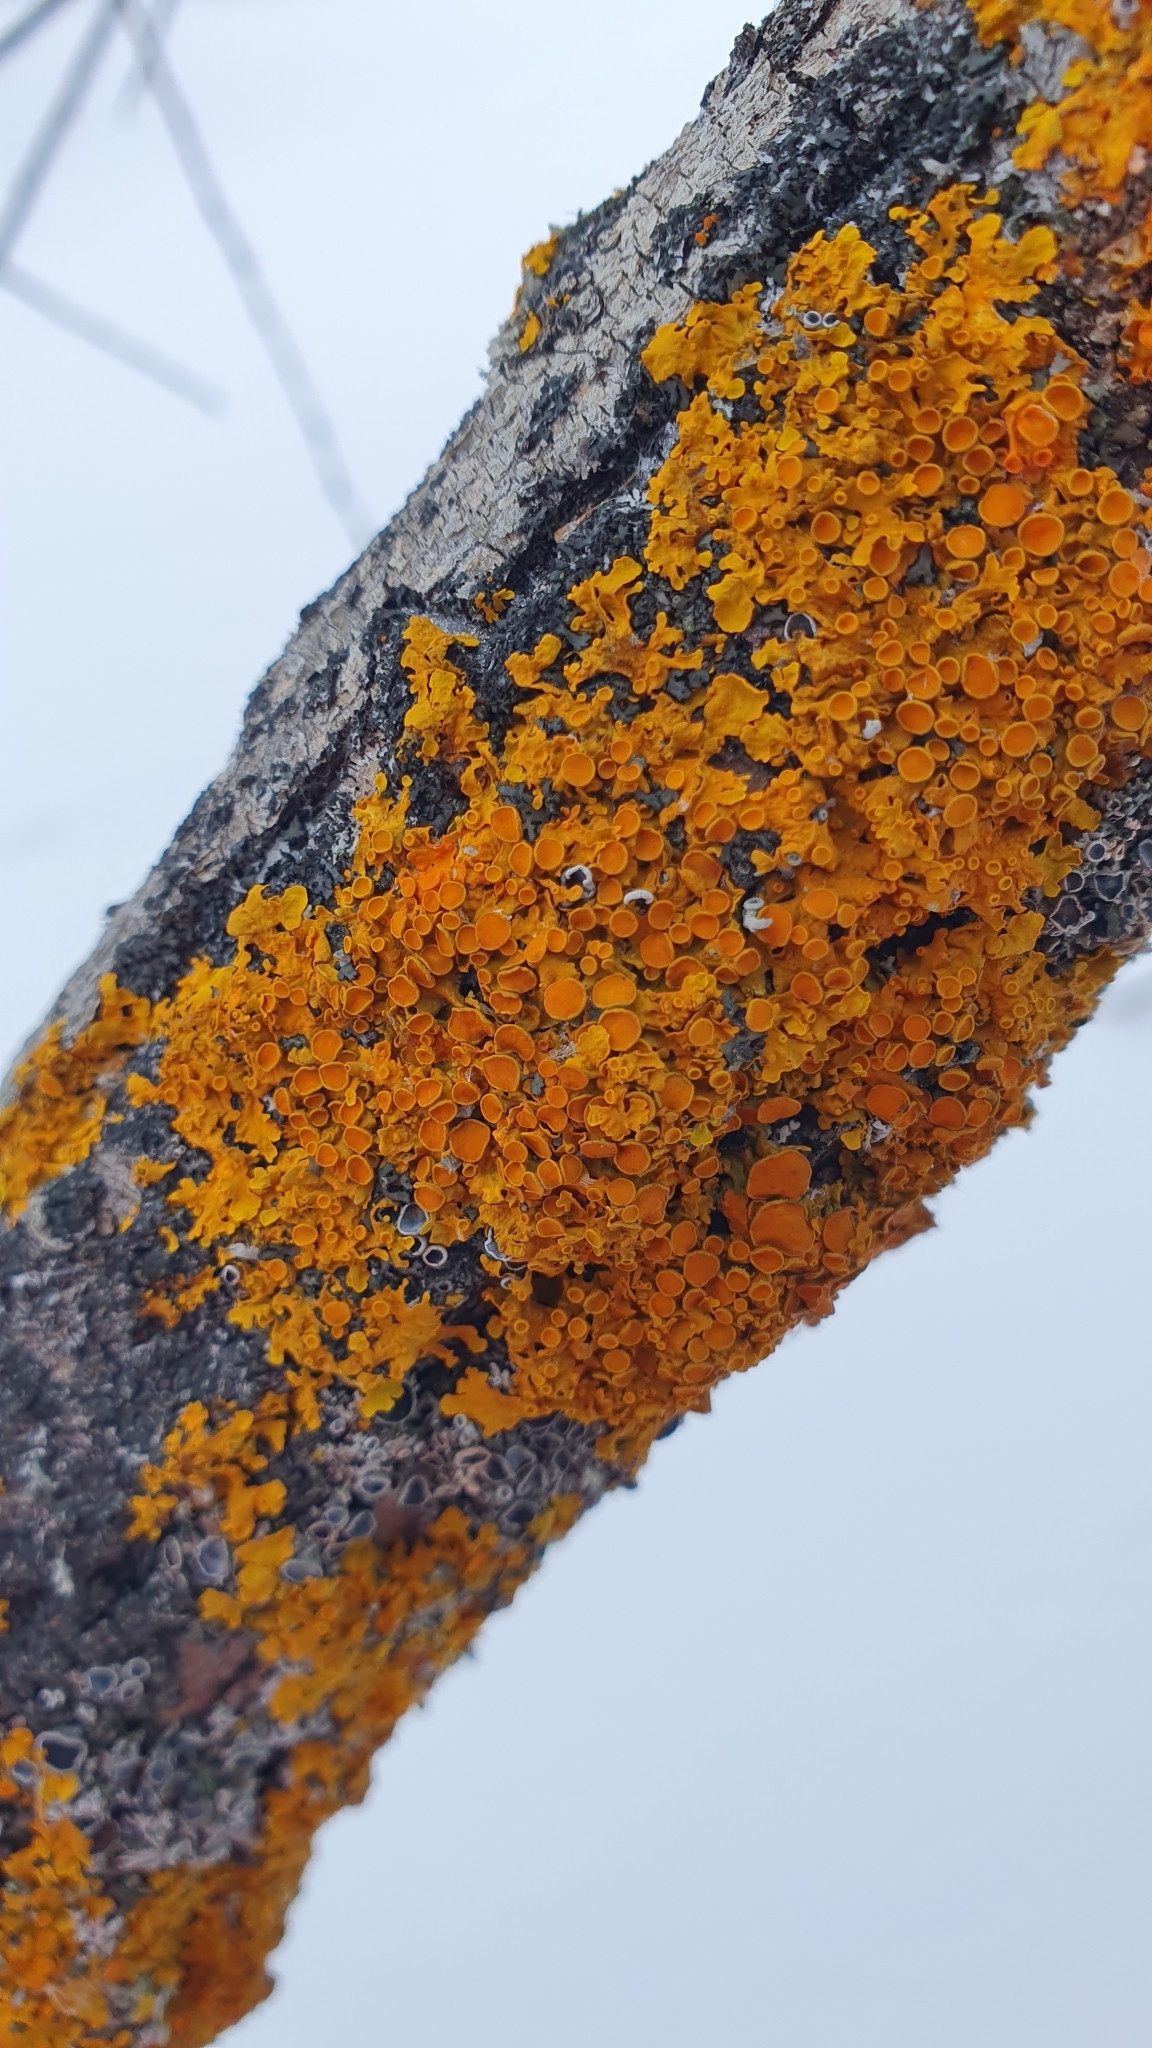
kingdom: Fungi
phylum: Ascomycota
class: Lecanoromycetes
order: Teloschistales
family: Teloschistaceae
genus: Xanthoria
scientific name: Xanthoria parietina
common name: Common orange lichen
